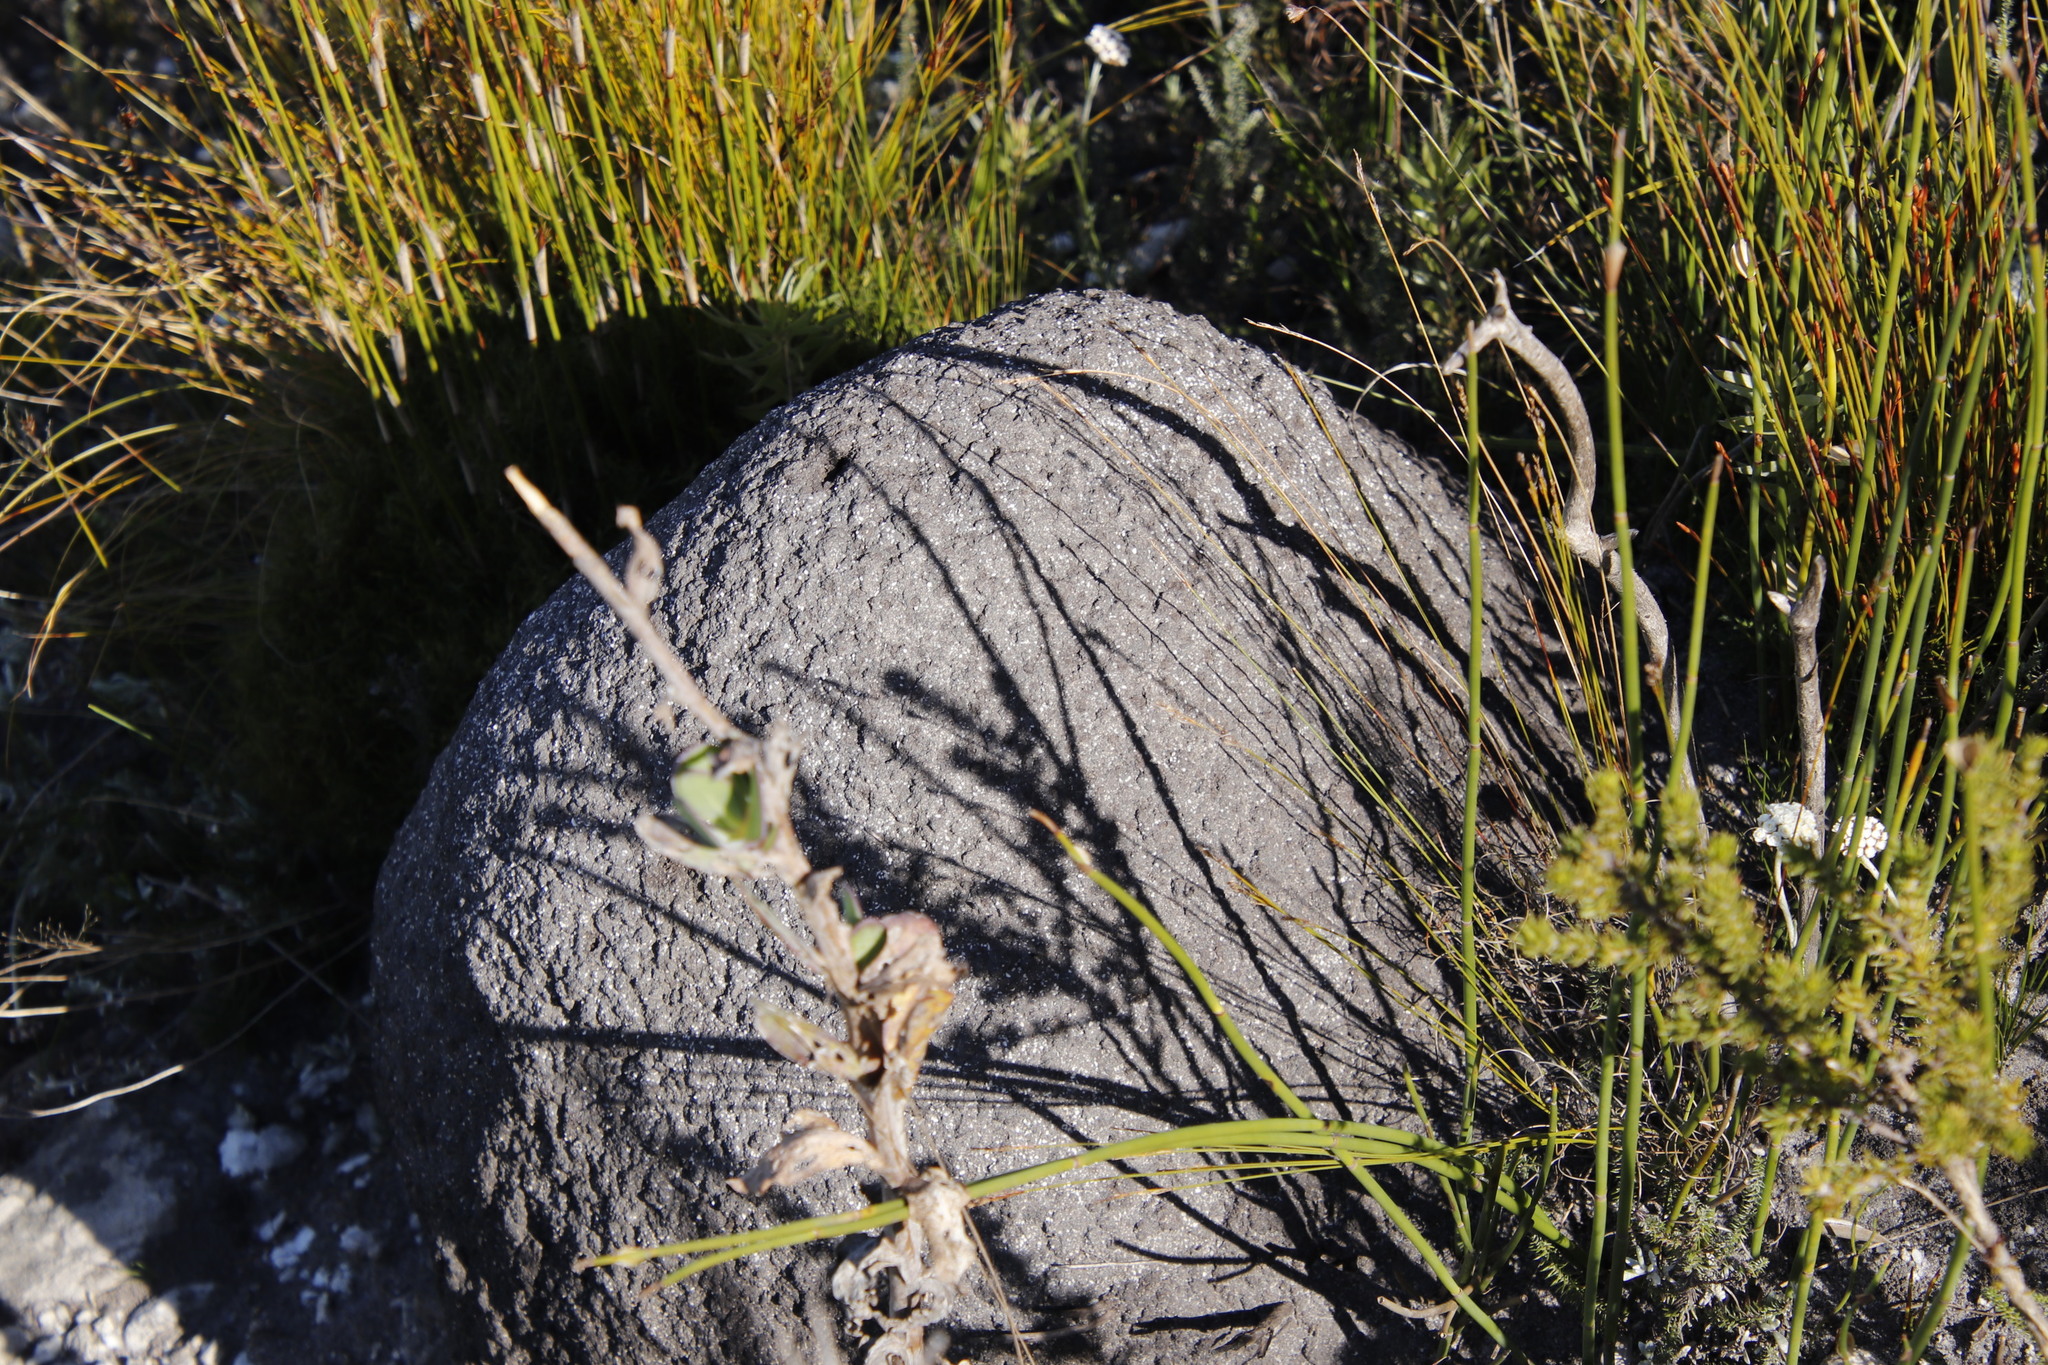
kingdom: Animalia
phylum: Arthropoda
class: Insecta
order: Blattodea
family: Termitidae
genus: Amitermes
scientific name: Amitermes hastatus
